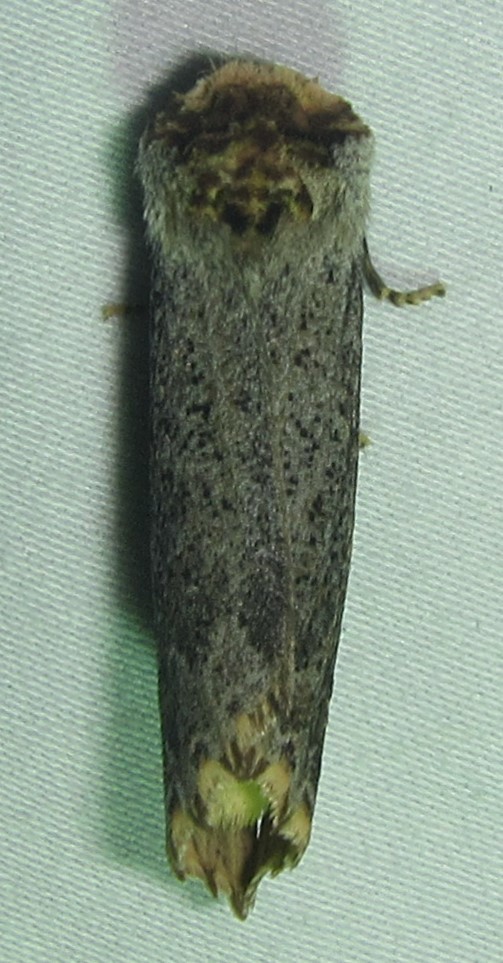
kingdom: Animalia
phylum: Arthropoda
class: Insecta
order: Lepidoptera
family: Notodontidae
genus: Phalera
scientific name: Phalera lydenburgi
